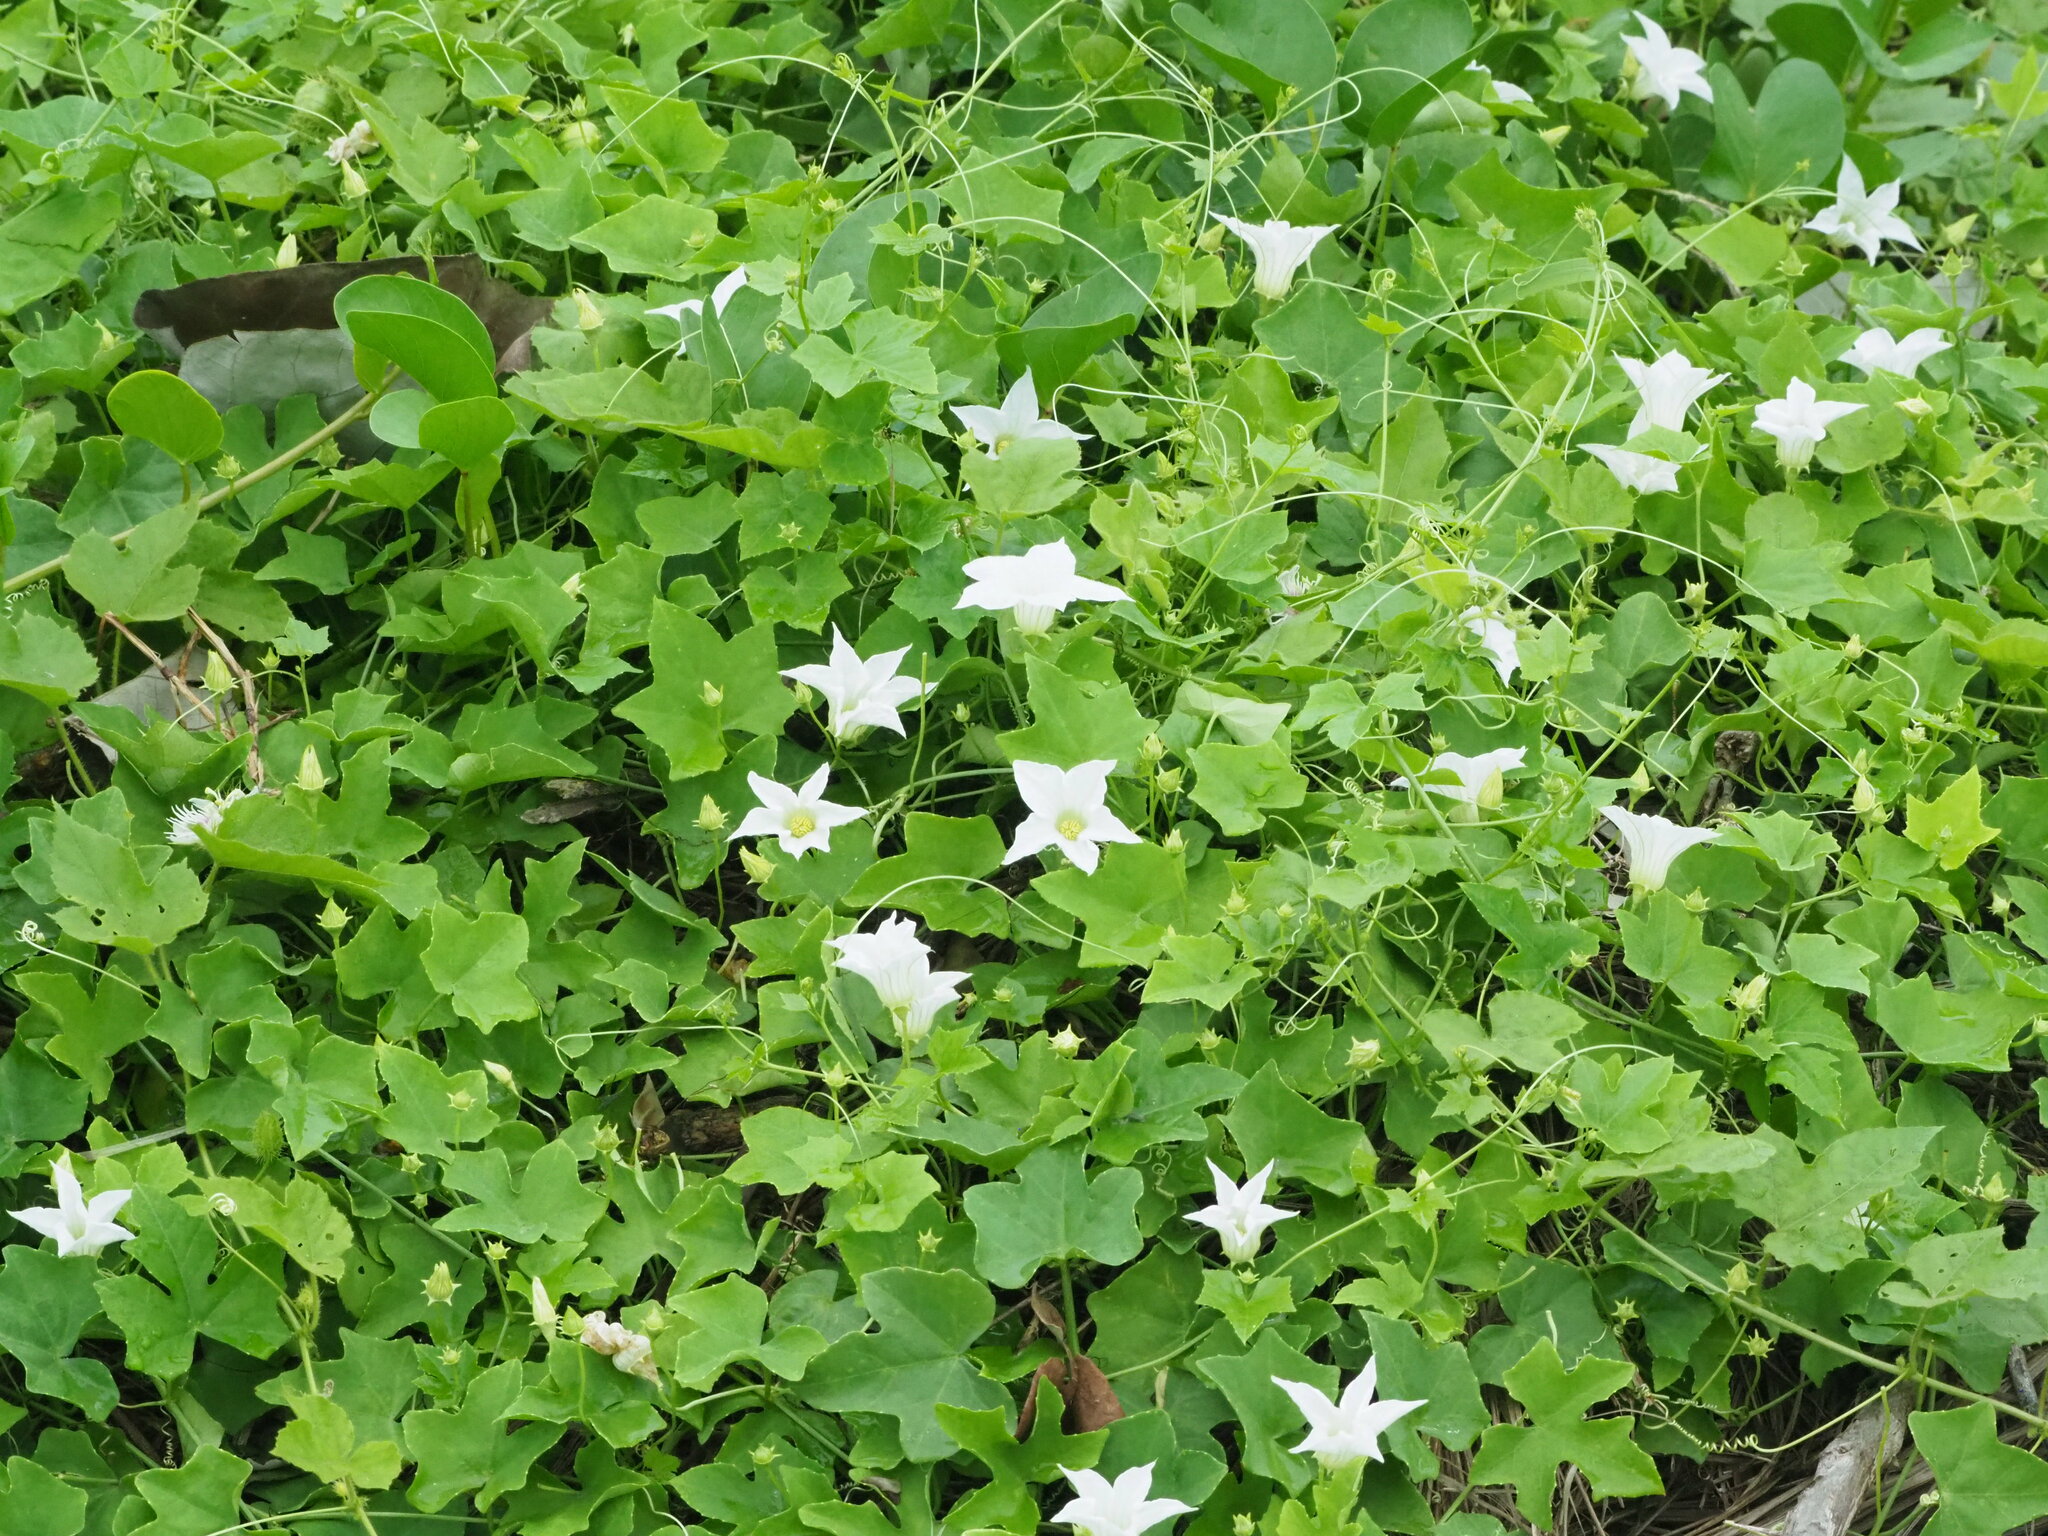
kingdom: Plantae
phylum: Tracheophyta
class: Magnoliopsida
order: Cucurbitales
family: Cucurbitaceae
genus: Coccinia
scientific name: Coccinia grandis
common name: Ivy gourd
